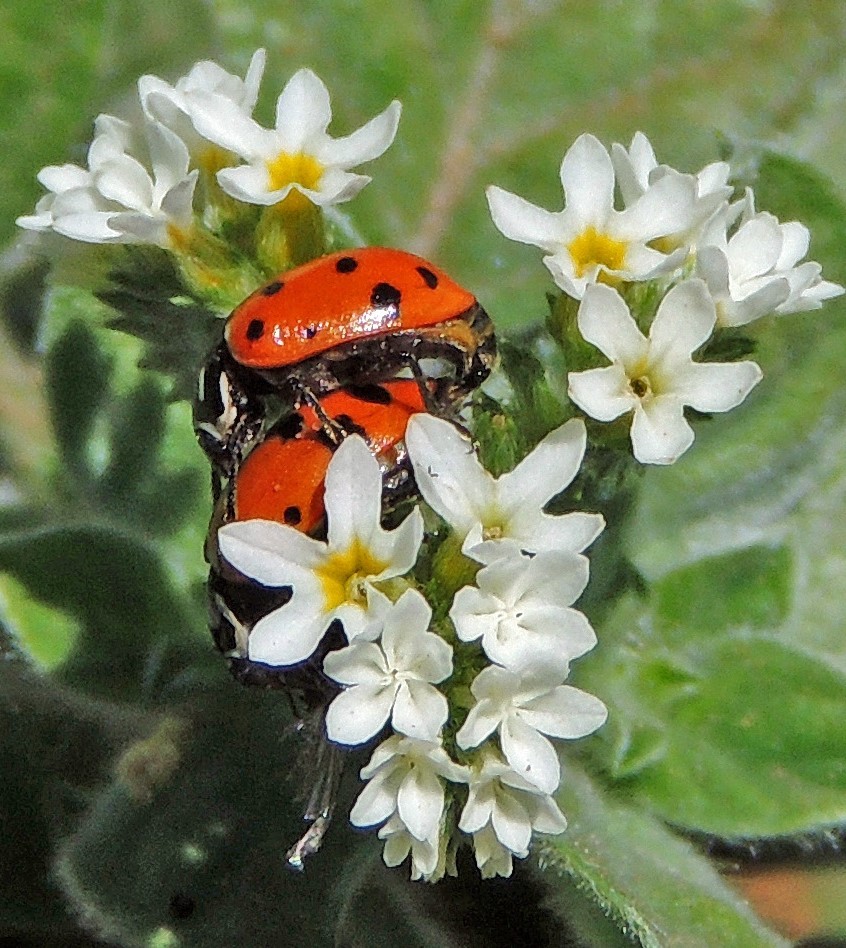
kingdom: Animalia
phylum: Arthropoda
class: Insecta
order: Coleoptera
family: Coccinellidae
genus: Hippodamia
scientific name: Hippodamia convergens
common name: Convergent lady beetle
